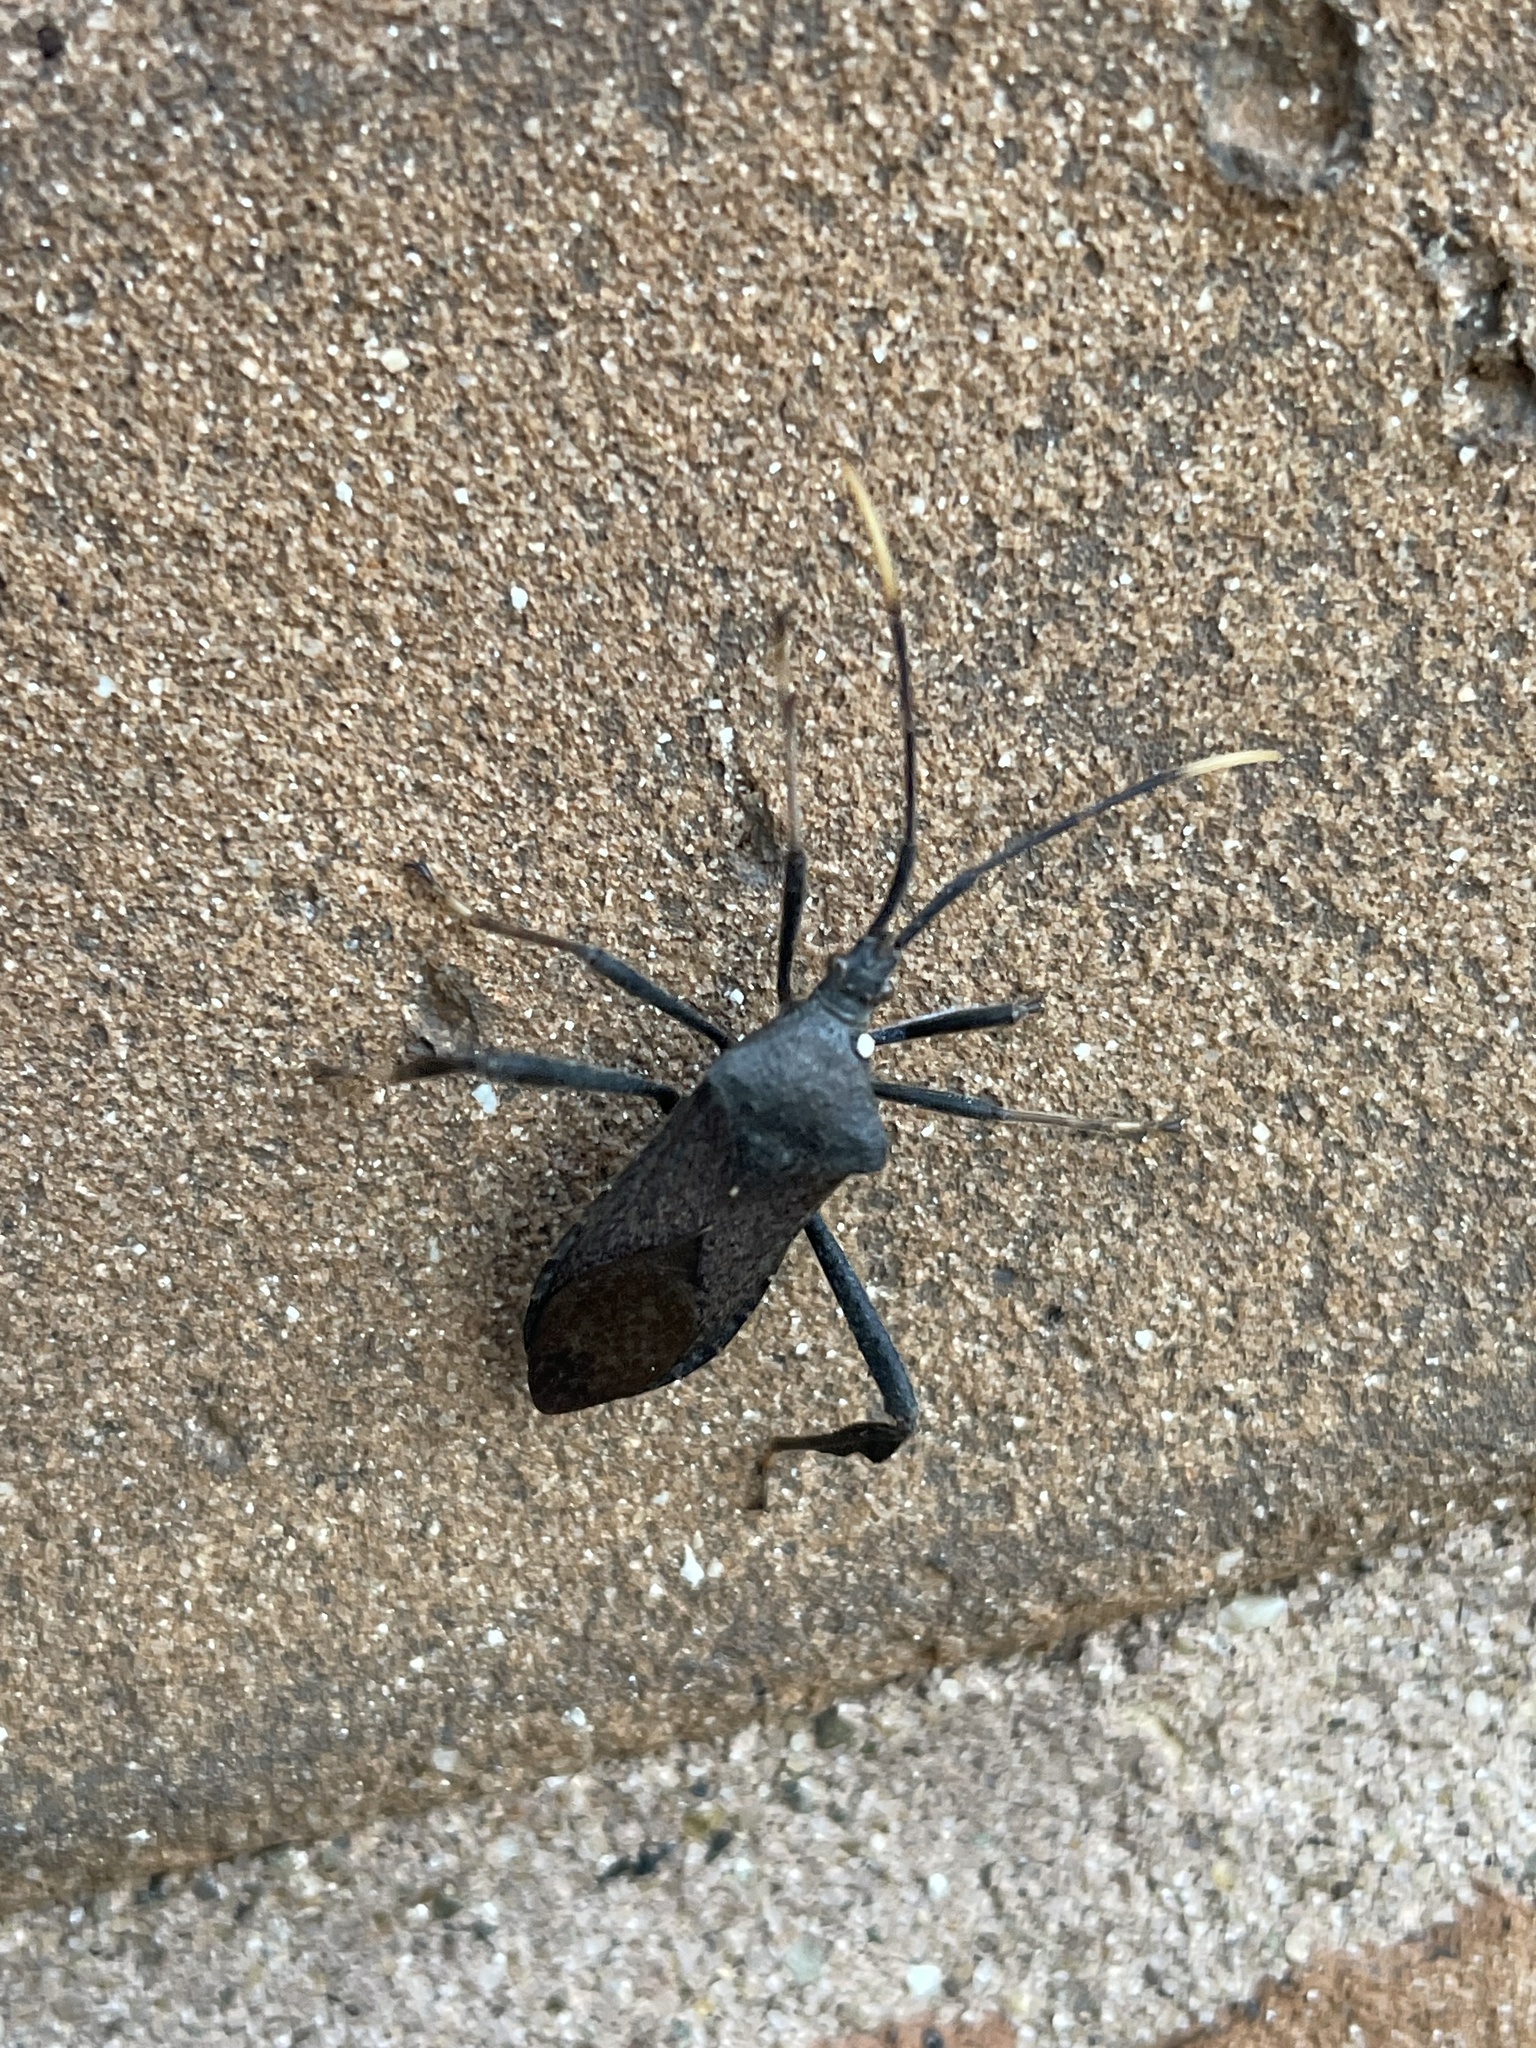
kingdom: Animalia
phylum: Arthropoda
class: Insecta
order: Hemiptera
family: Coreidae
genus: Acanthocephala
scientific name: Acanthocephala terminalis
